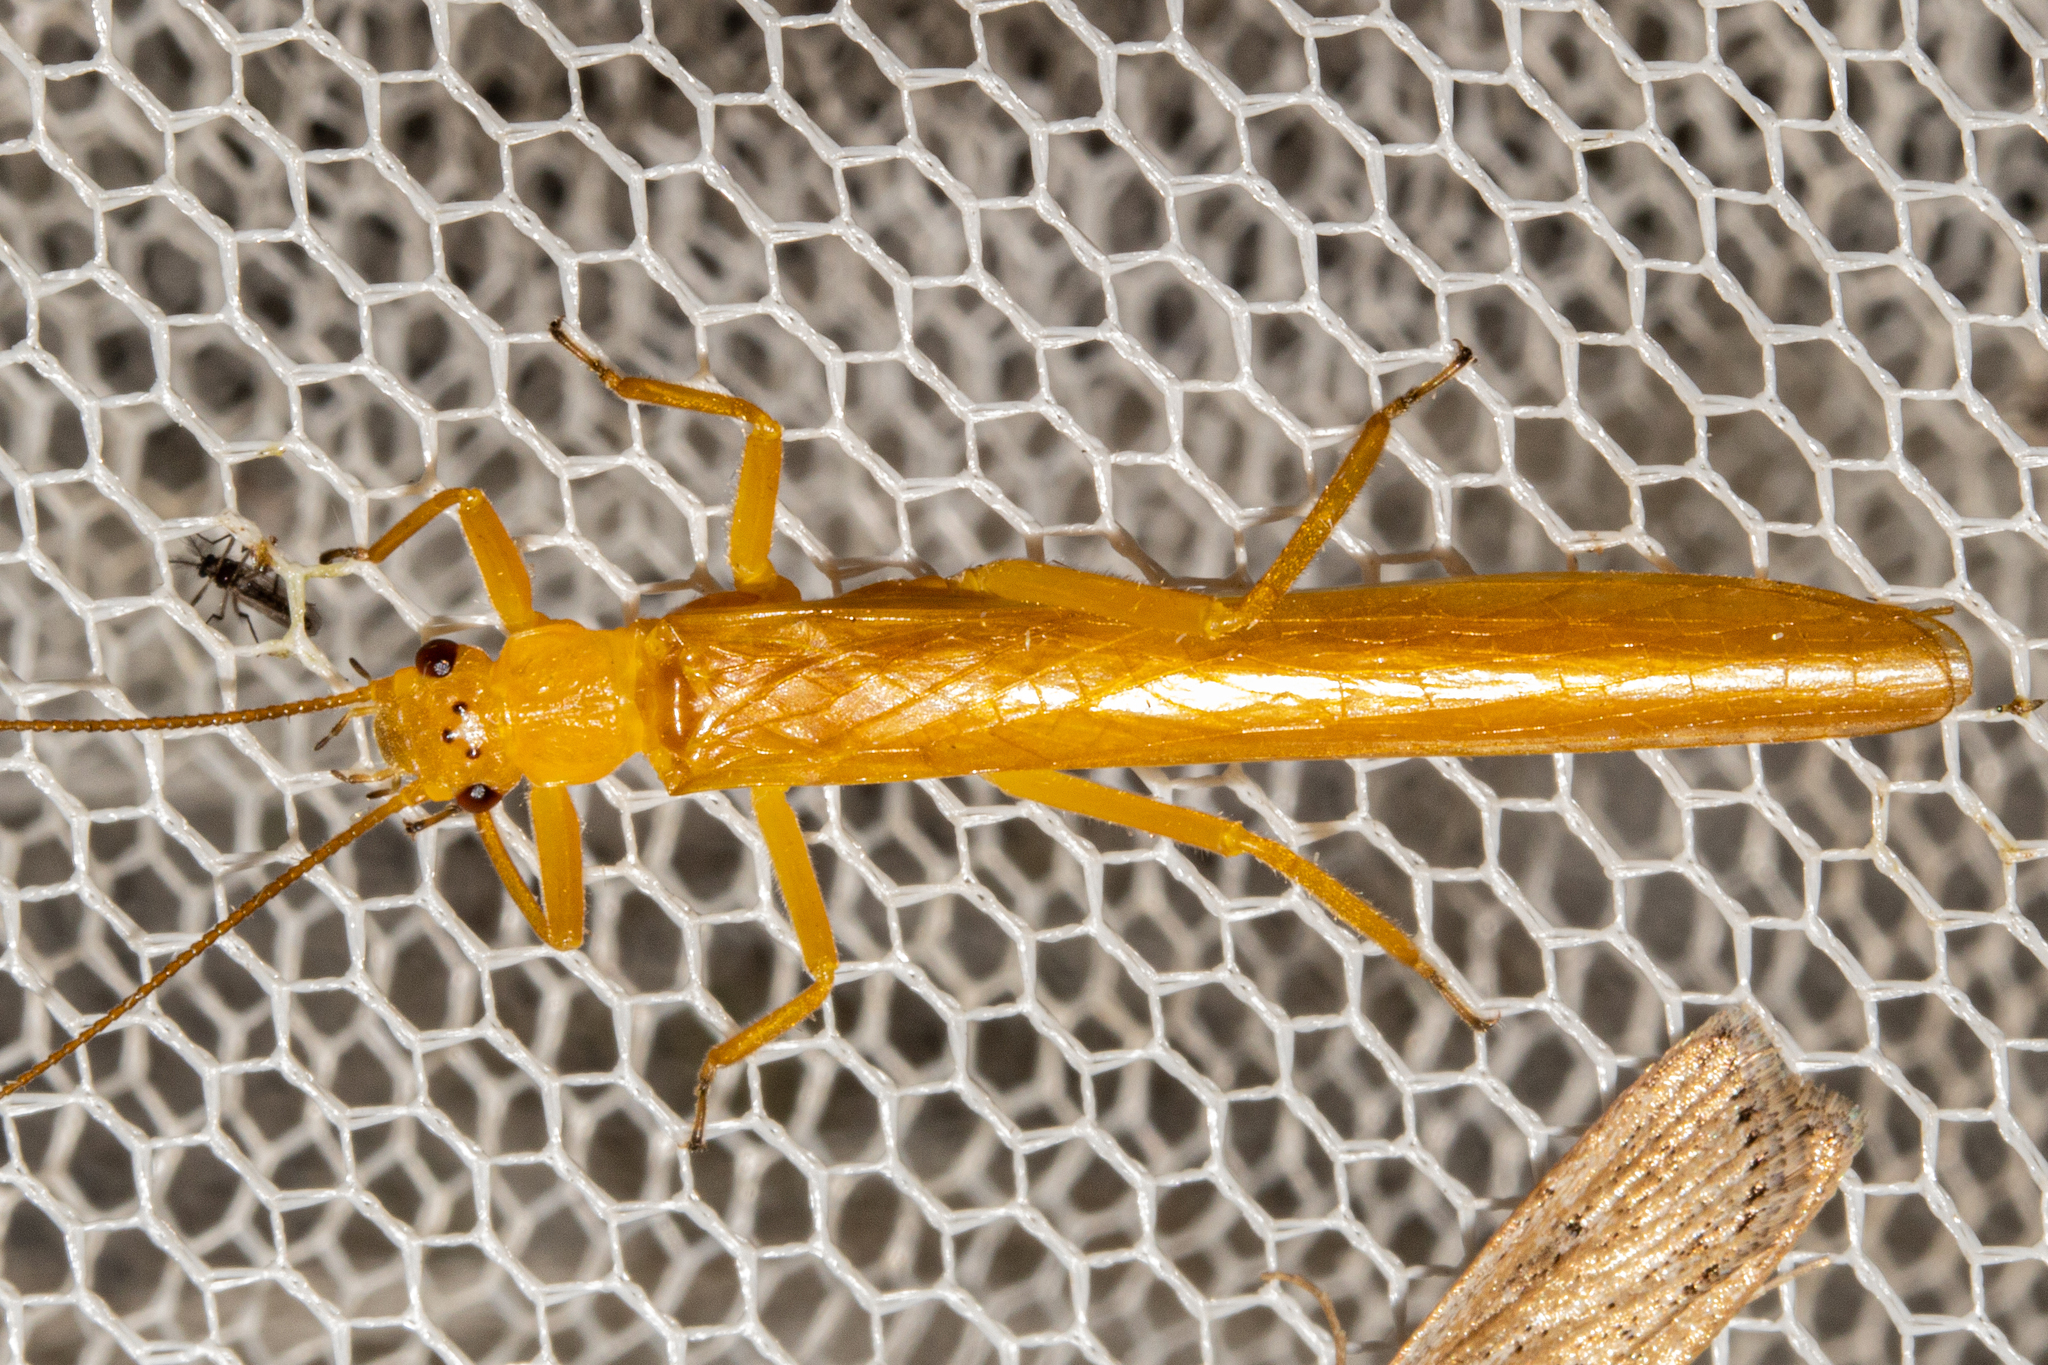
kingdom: Animalia
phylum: Arthropoda
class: Insecta
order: Plecoptera
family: Eustheniidae
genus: Stenoperla
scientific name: Stenoperla prasina
